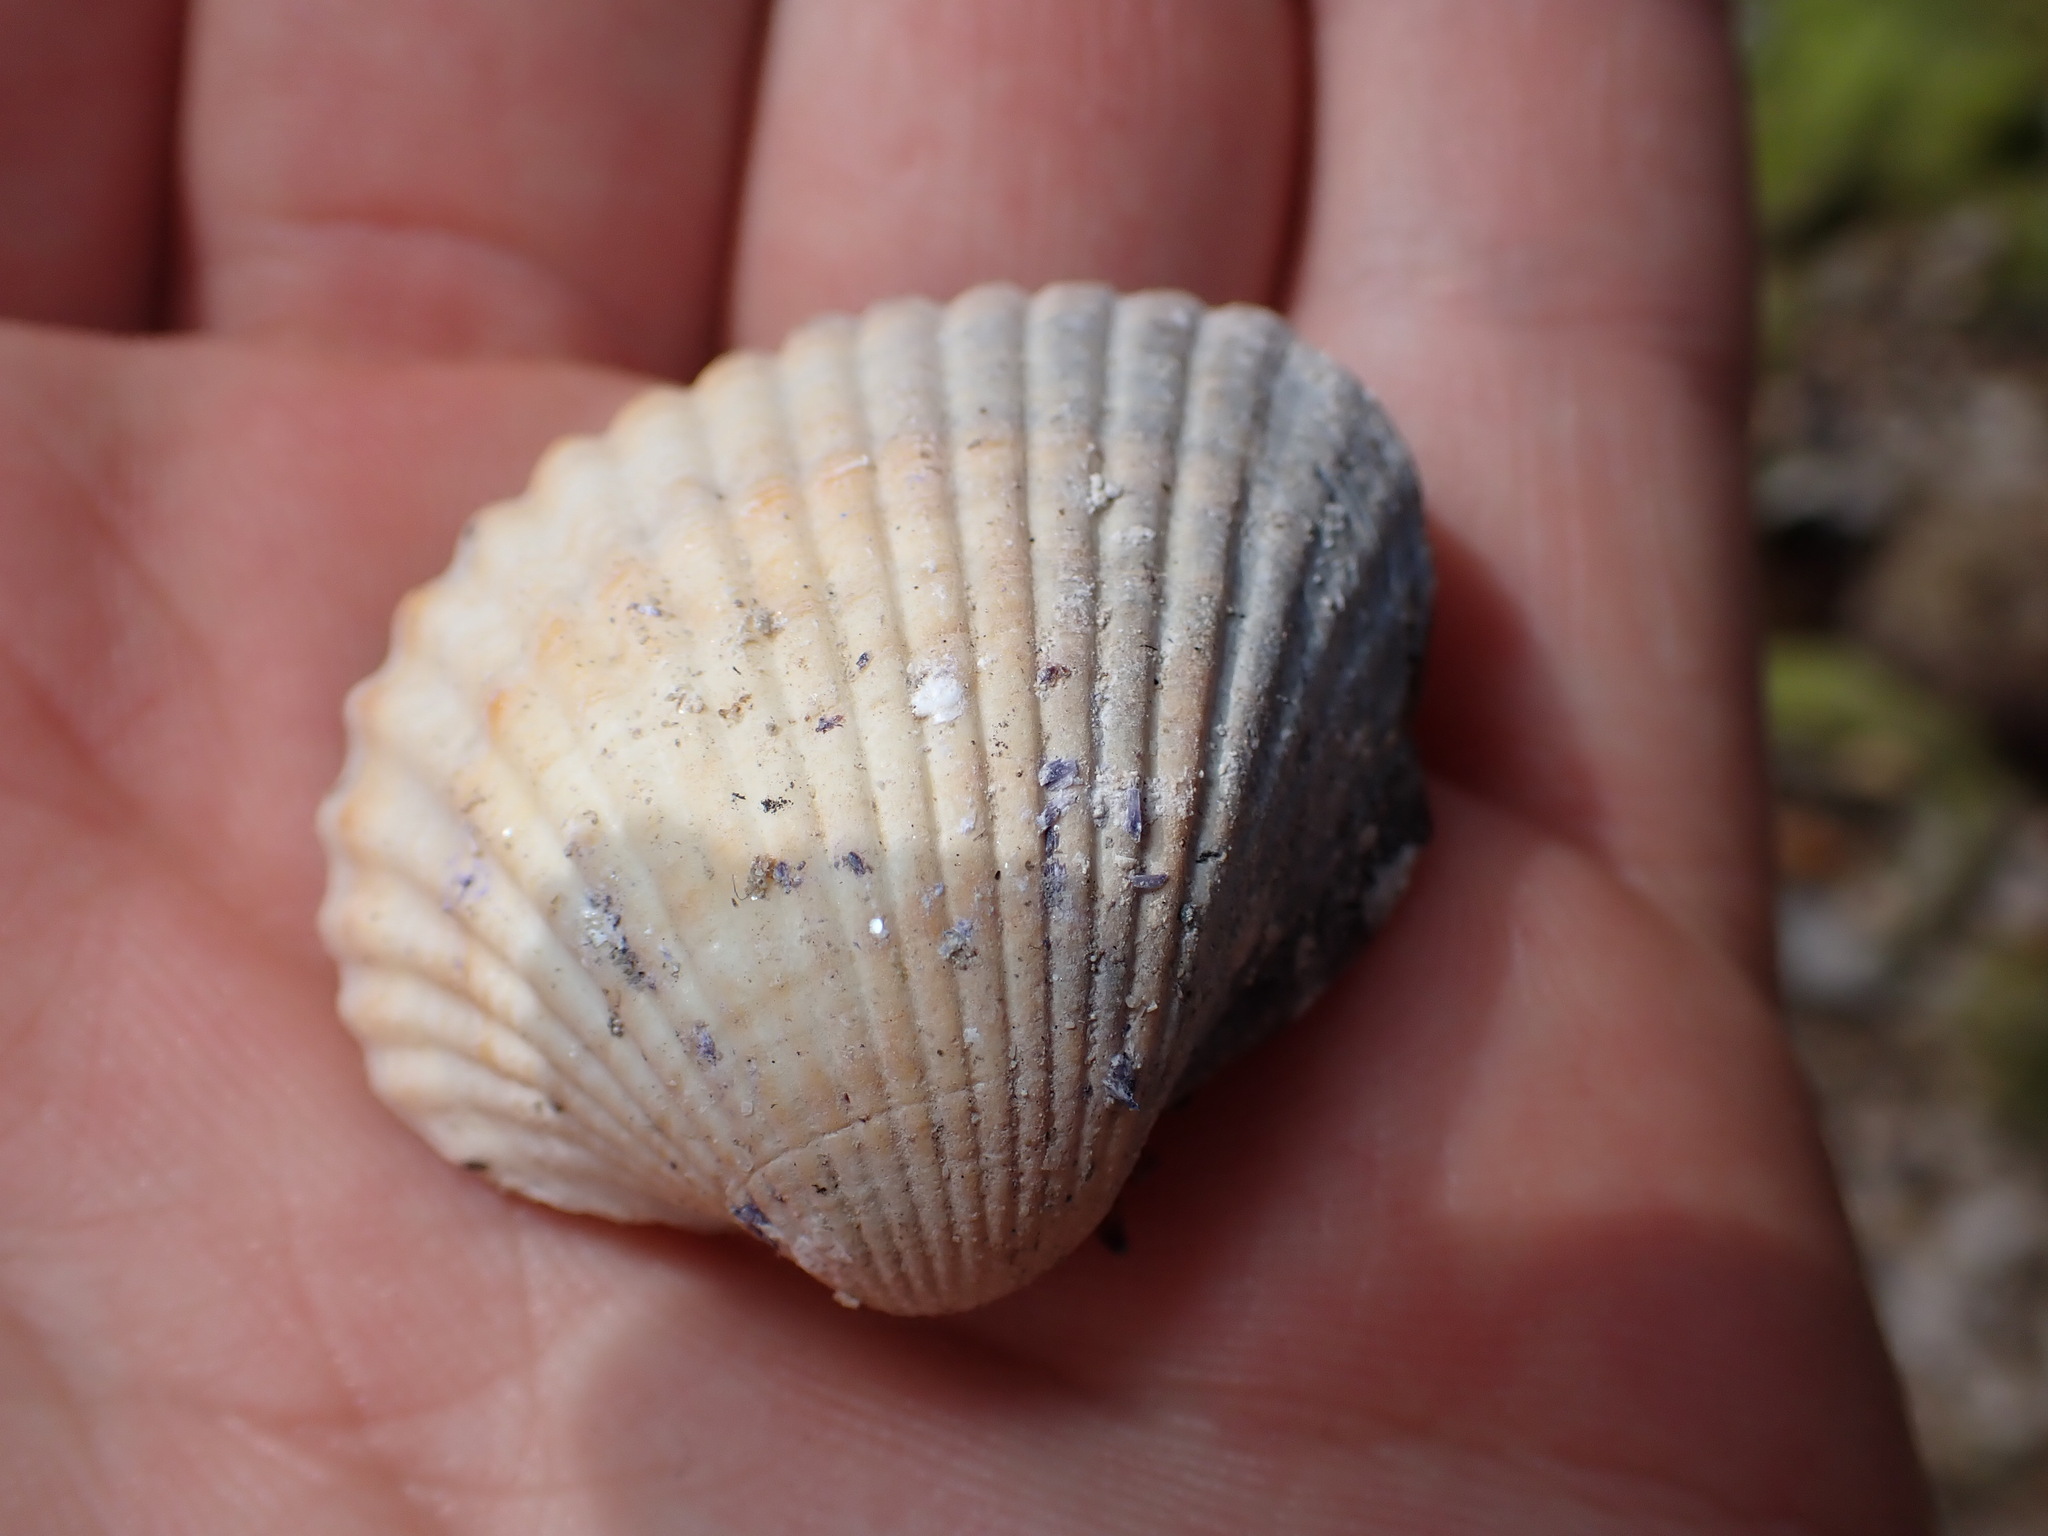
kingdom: Animalia
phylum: Mollusca
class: Bivalvia
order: Cardiida
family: Cardiidae
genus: Cerastoderma
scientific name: Cerastoderma glaucum
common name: Lagoon cockle
